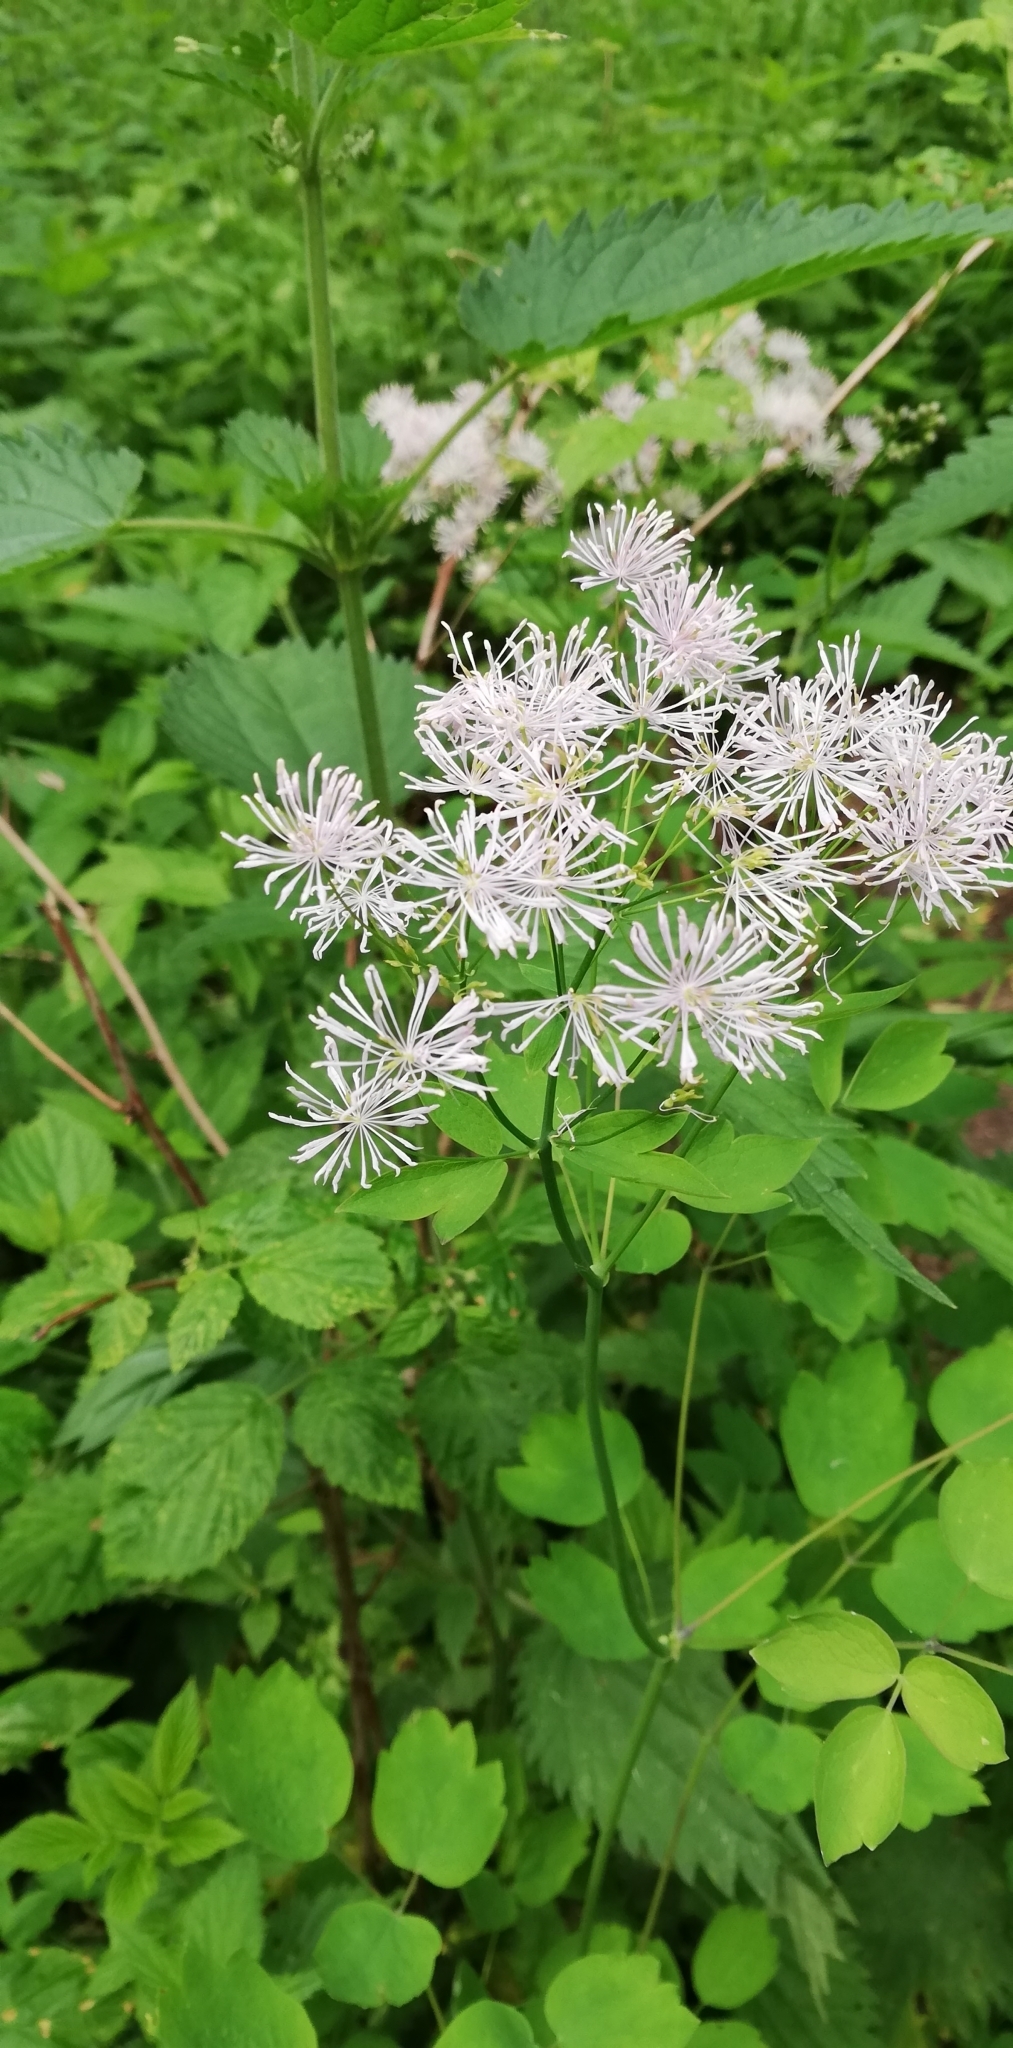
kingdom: Plantae
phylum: Tracheophyta
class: Magnoliopsida
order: Ranunculales
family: Ranunculaceae
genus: Thalictrum
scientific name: Thalictrum aquilegiifolium
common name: French meadow-rue
